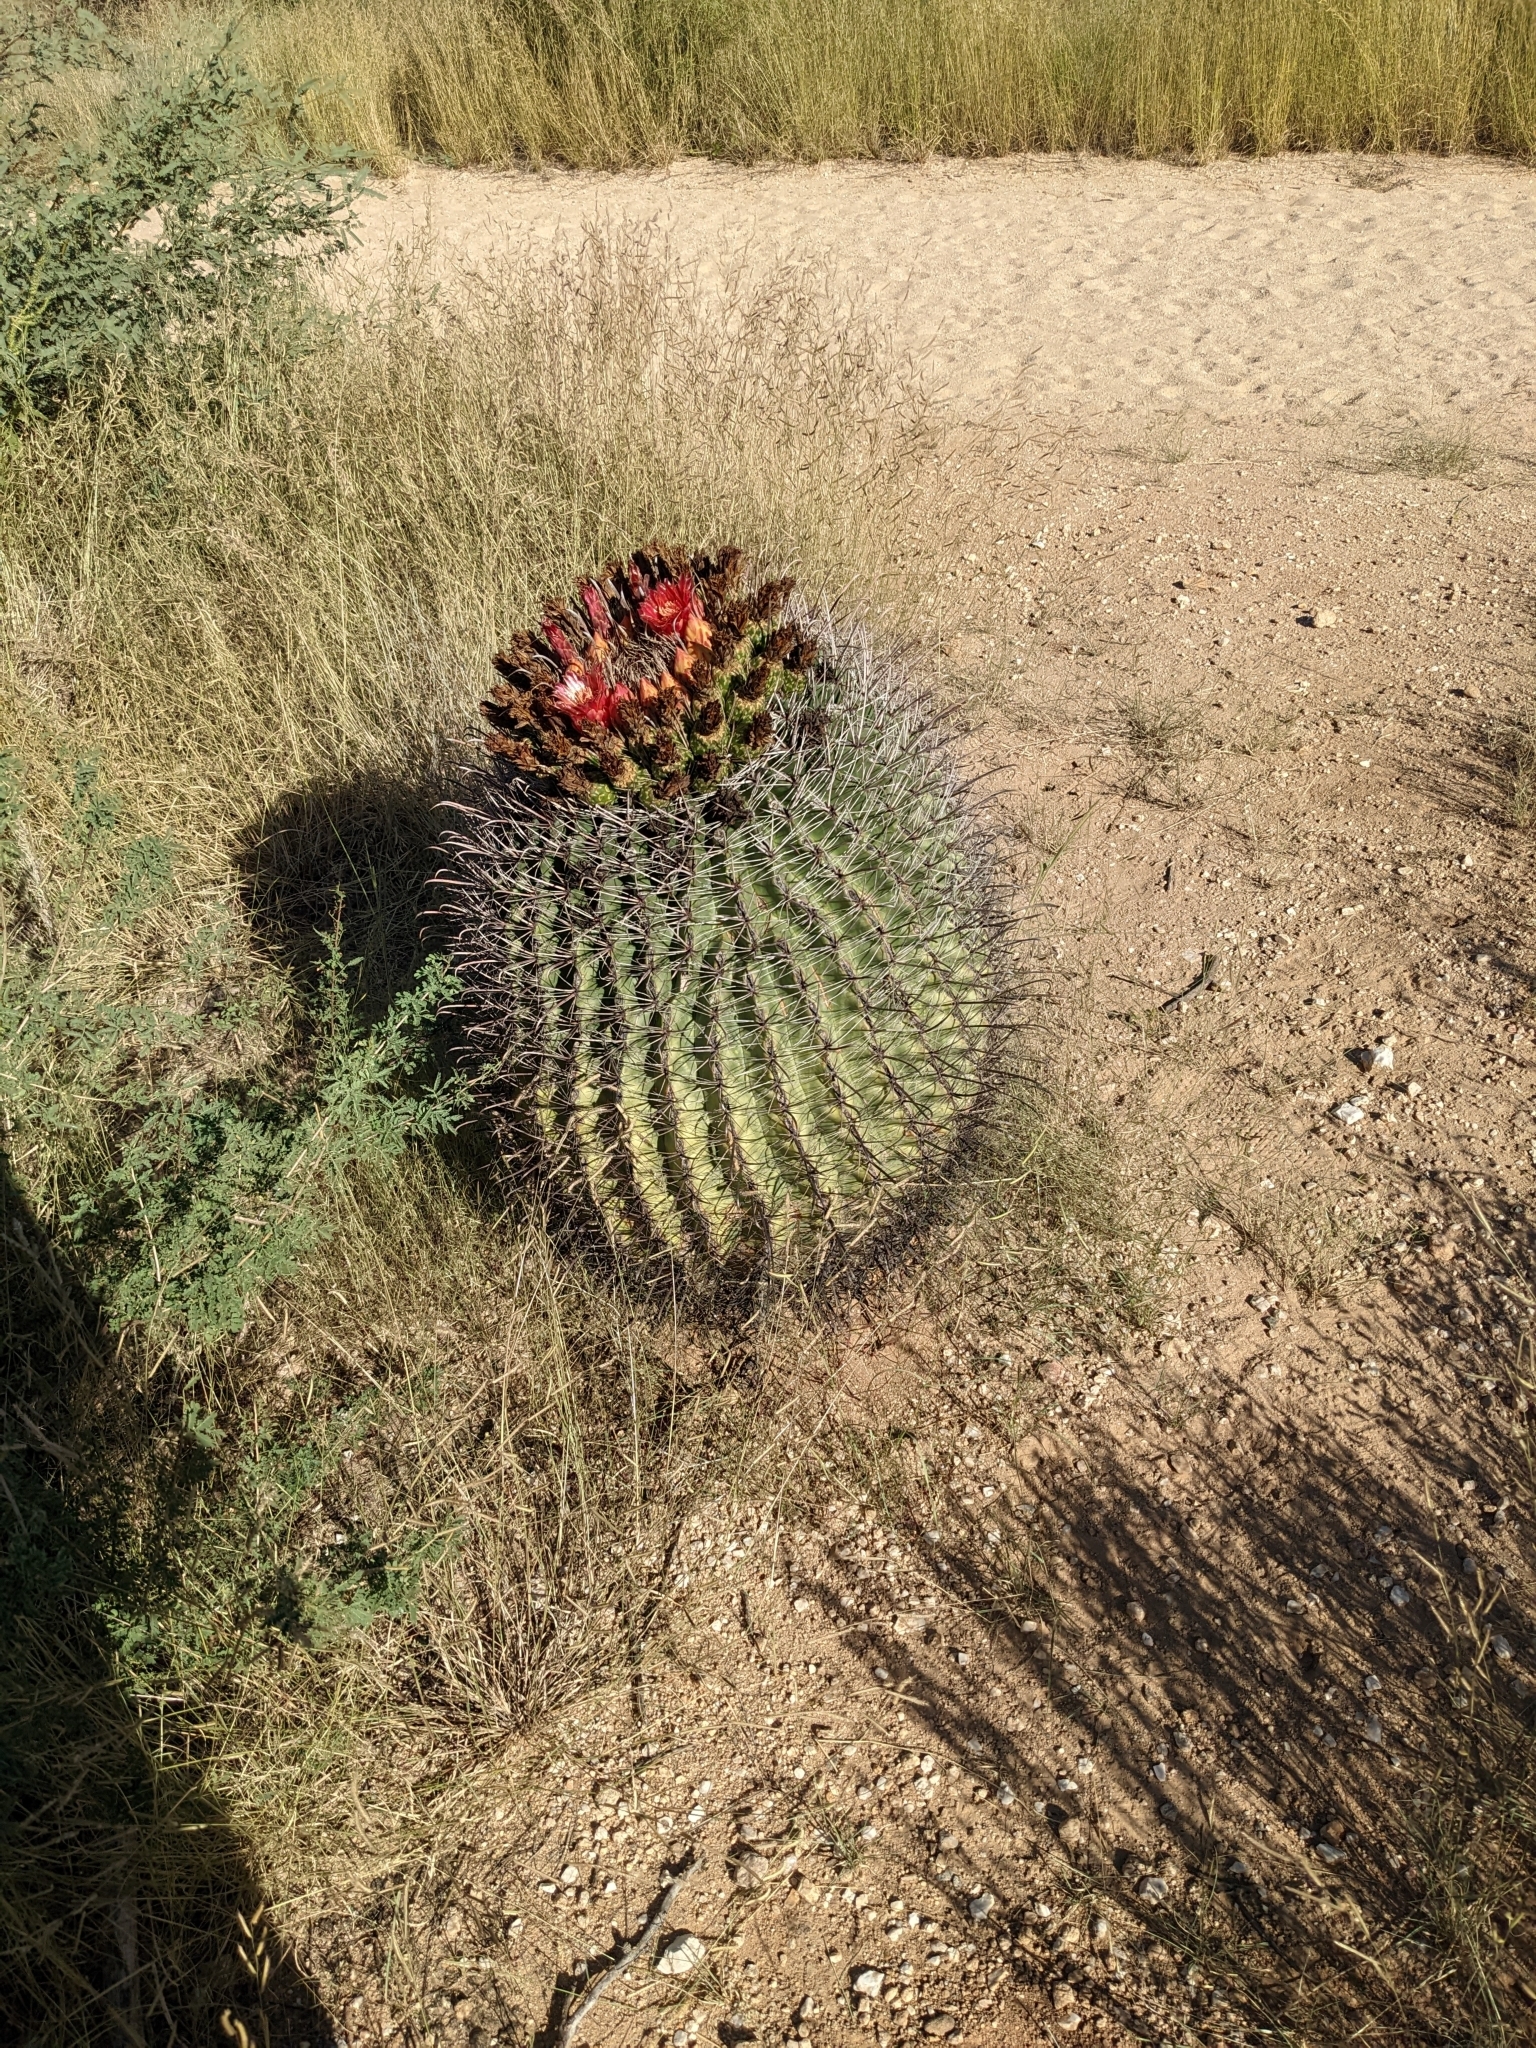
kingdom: Plantae
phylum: Tracheophyta
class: Magnoliopsida
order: Caryophyllales
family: Cactaceae
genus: Ferocactus
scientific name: Ferocactus wislizeni
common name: Candy barrel cactus
